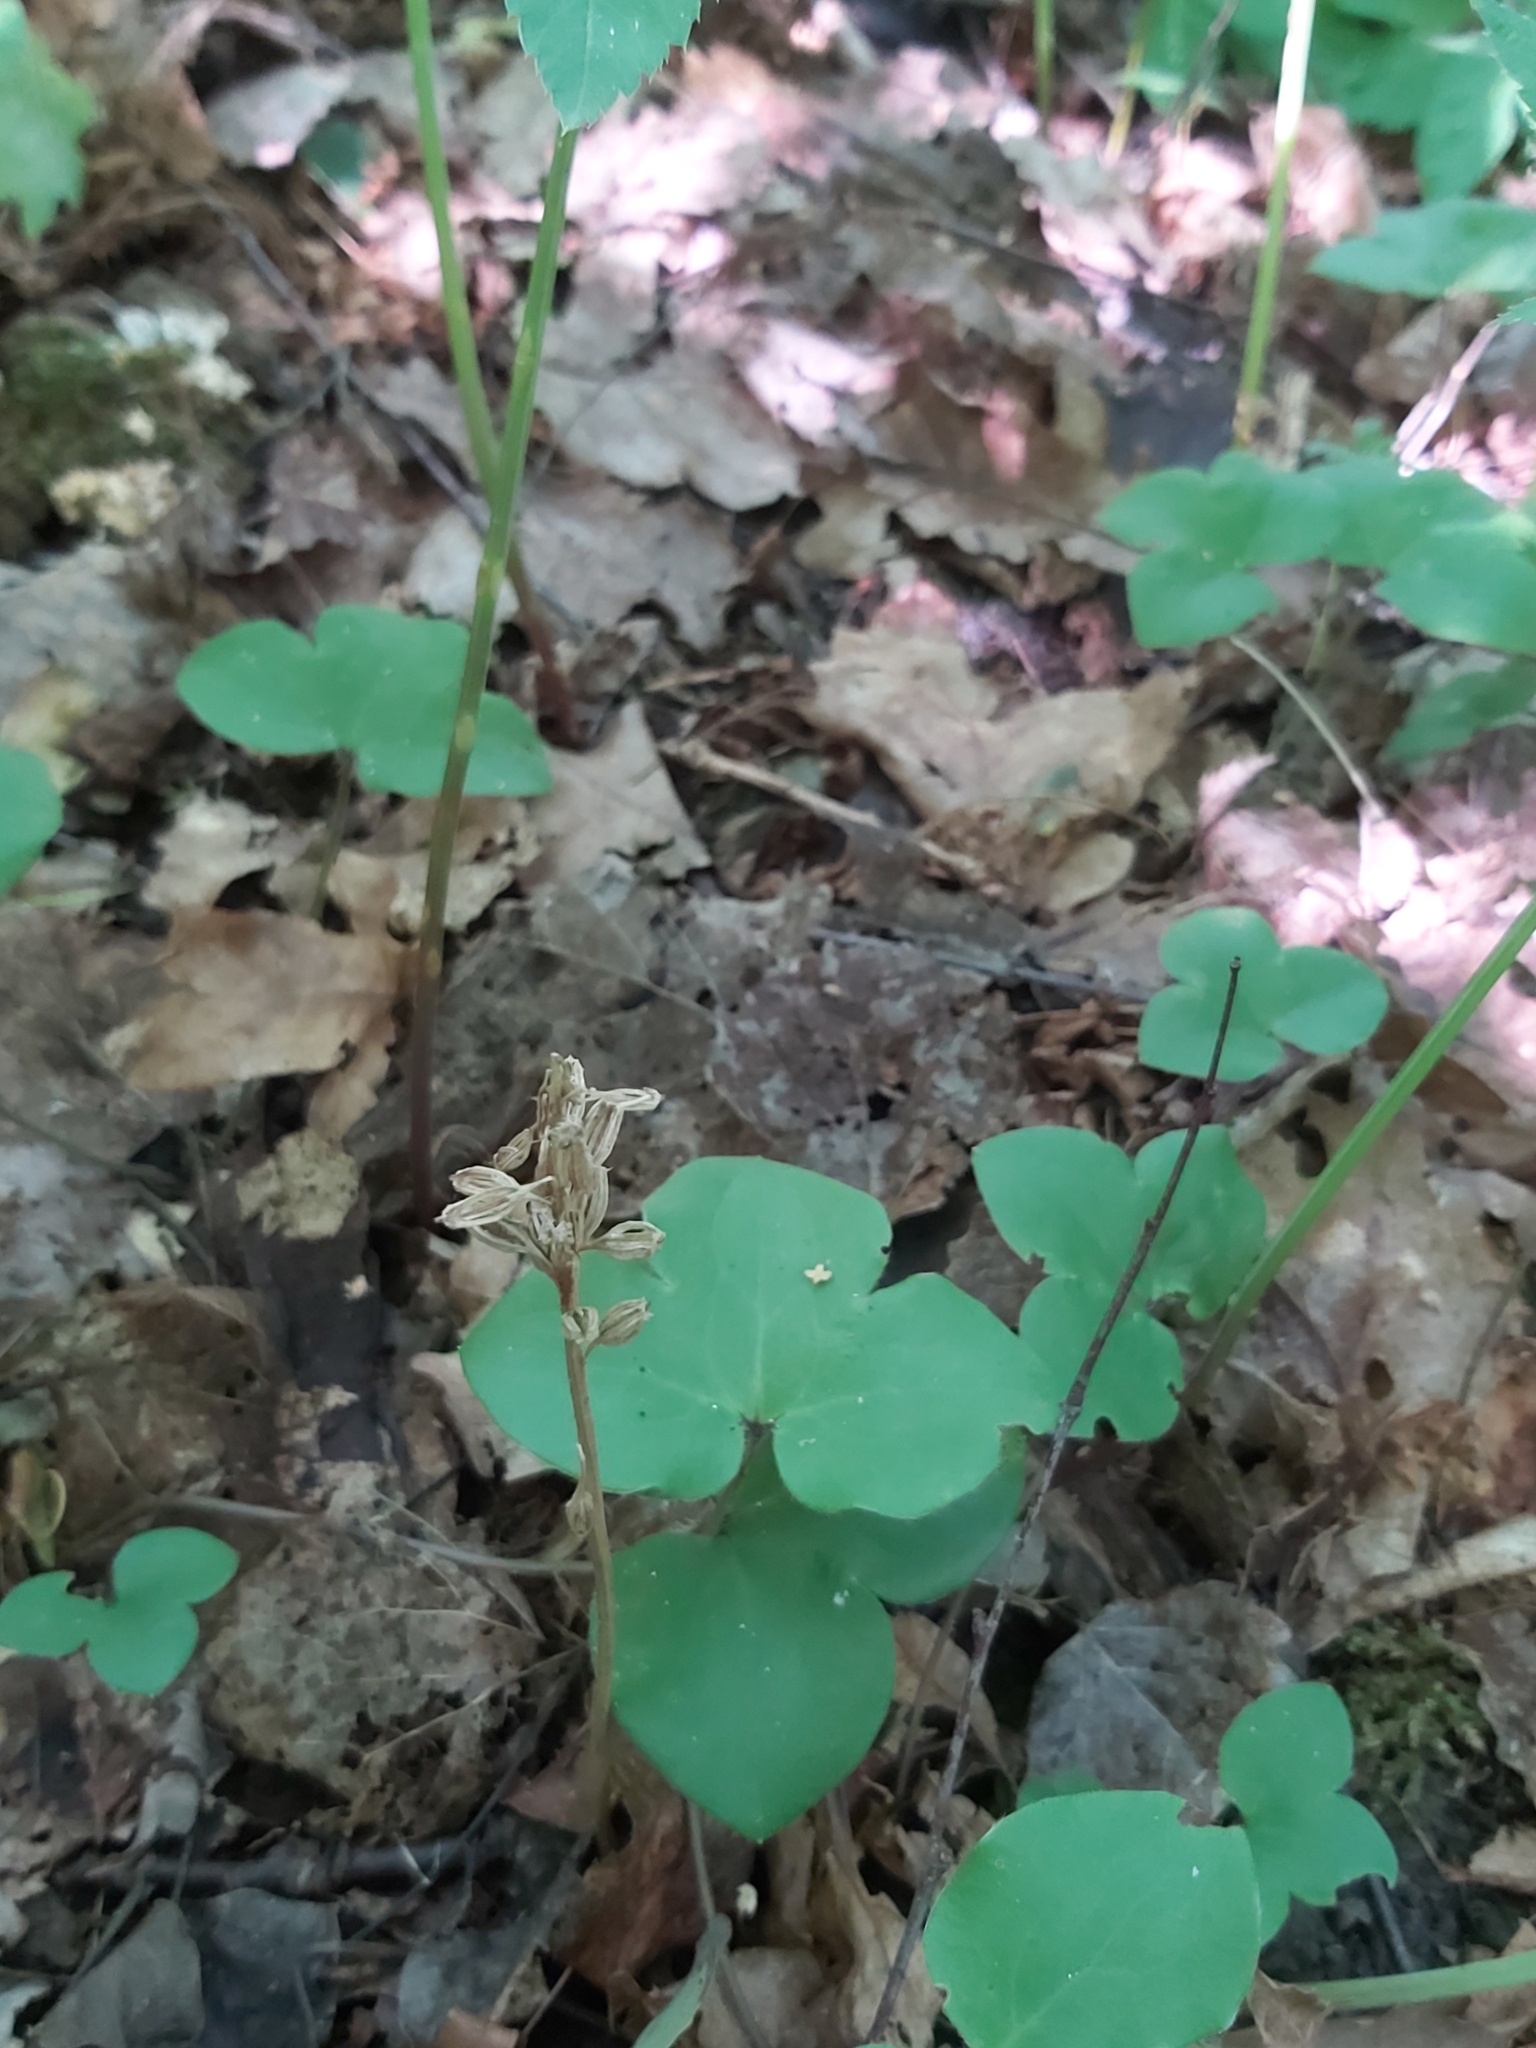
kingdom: Plantae
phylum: Tracheophyta
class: Liliopsida
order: Asparagales
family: Orchidaceae
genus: Neottia
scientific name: Neottia nidus-avis
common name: Bird's-nest orchid
